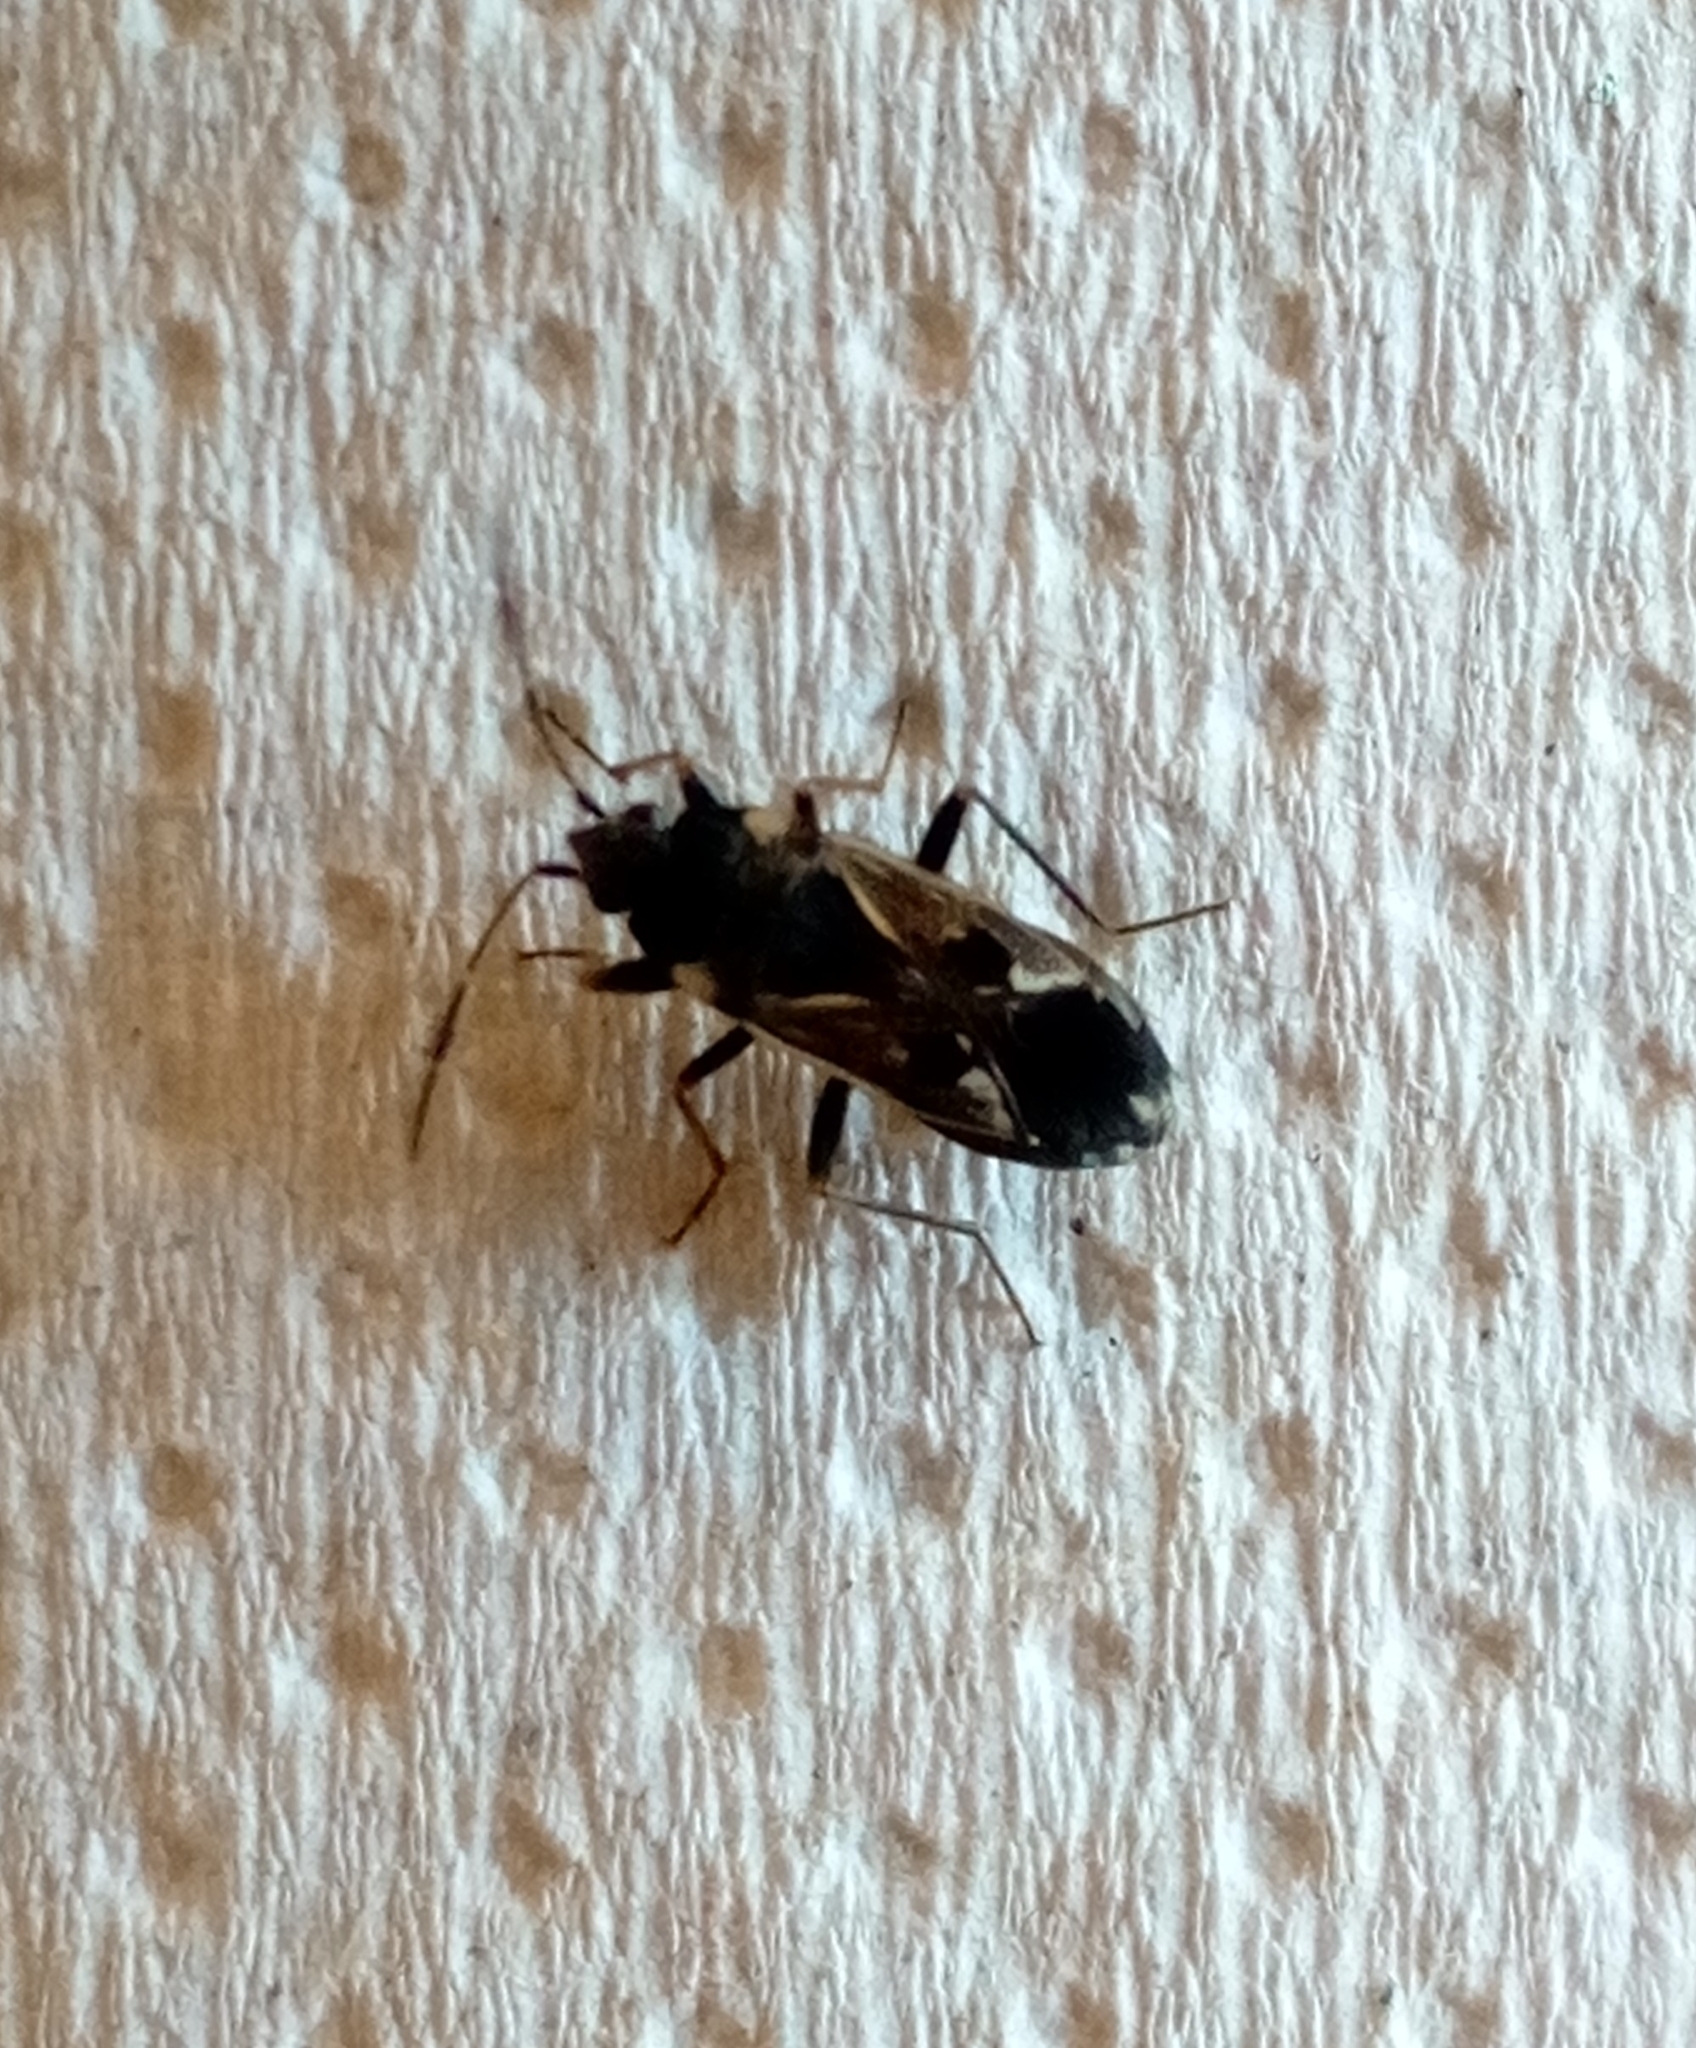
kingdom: Animalia
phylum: Arthropoda
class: Insecta
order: Hemiptera
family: Rhyparochromidae
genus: Rhyparochromus
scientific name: Rhyparochromus vulgaris
